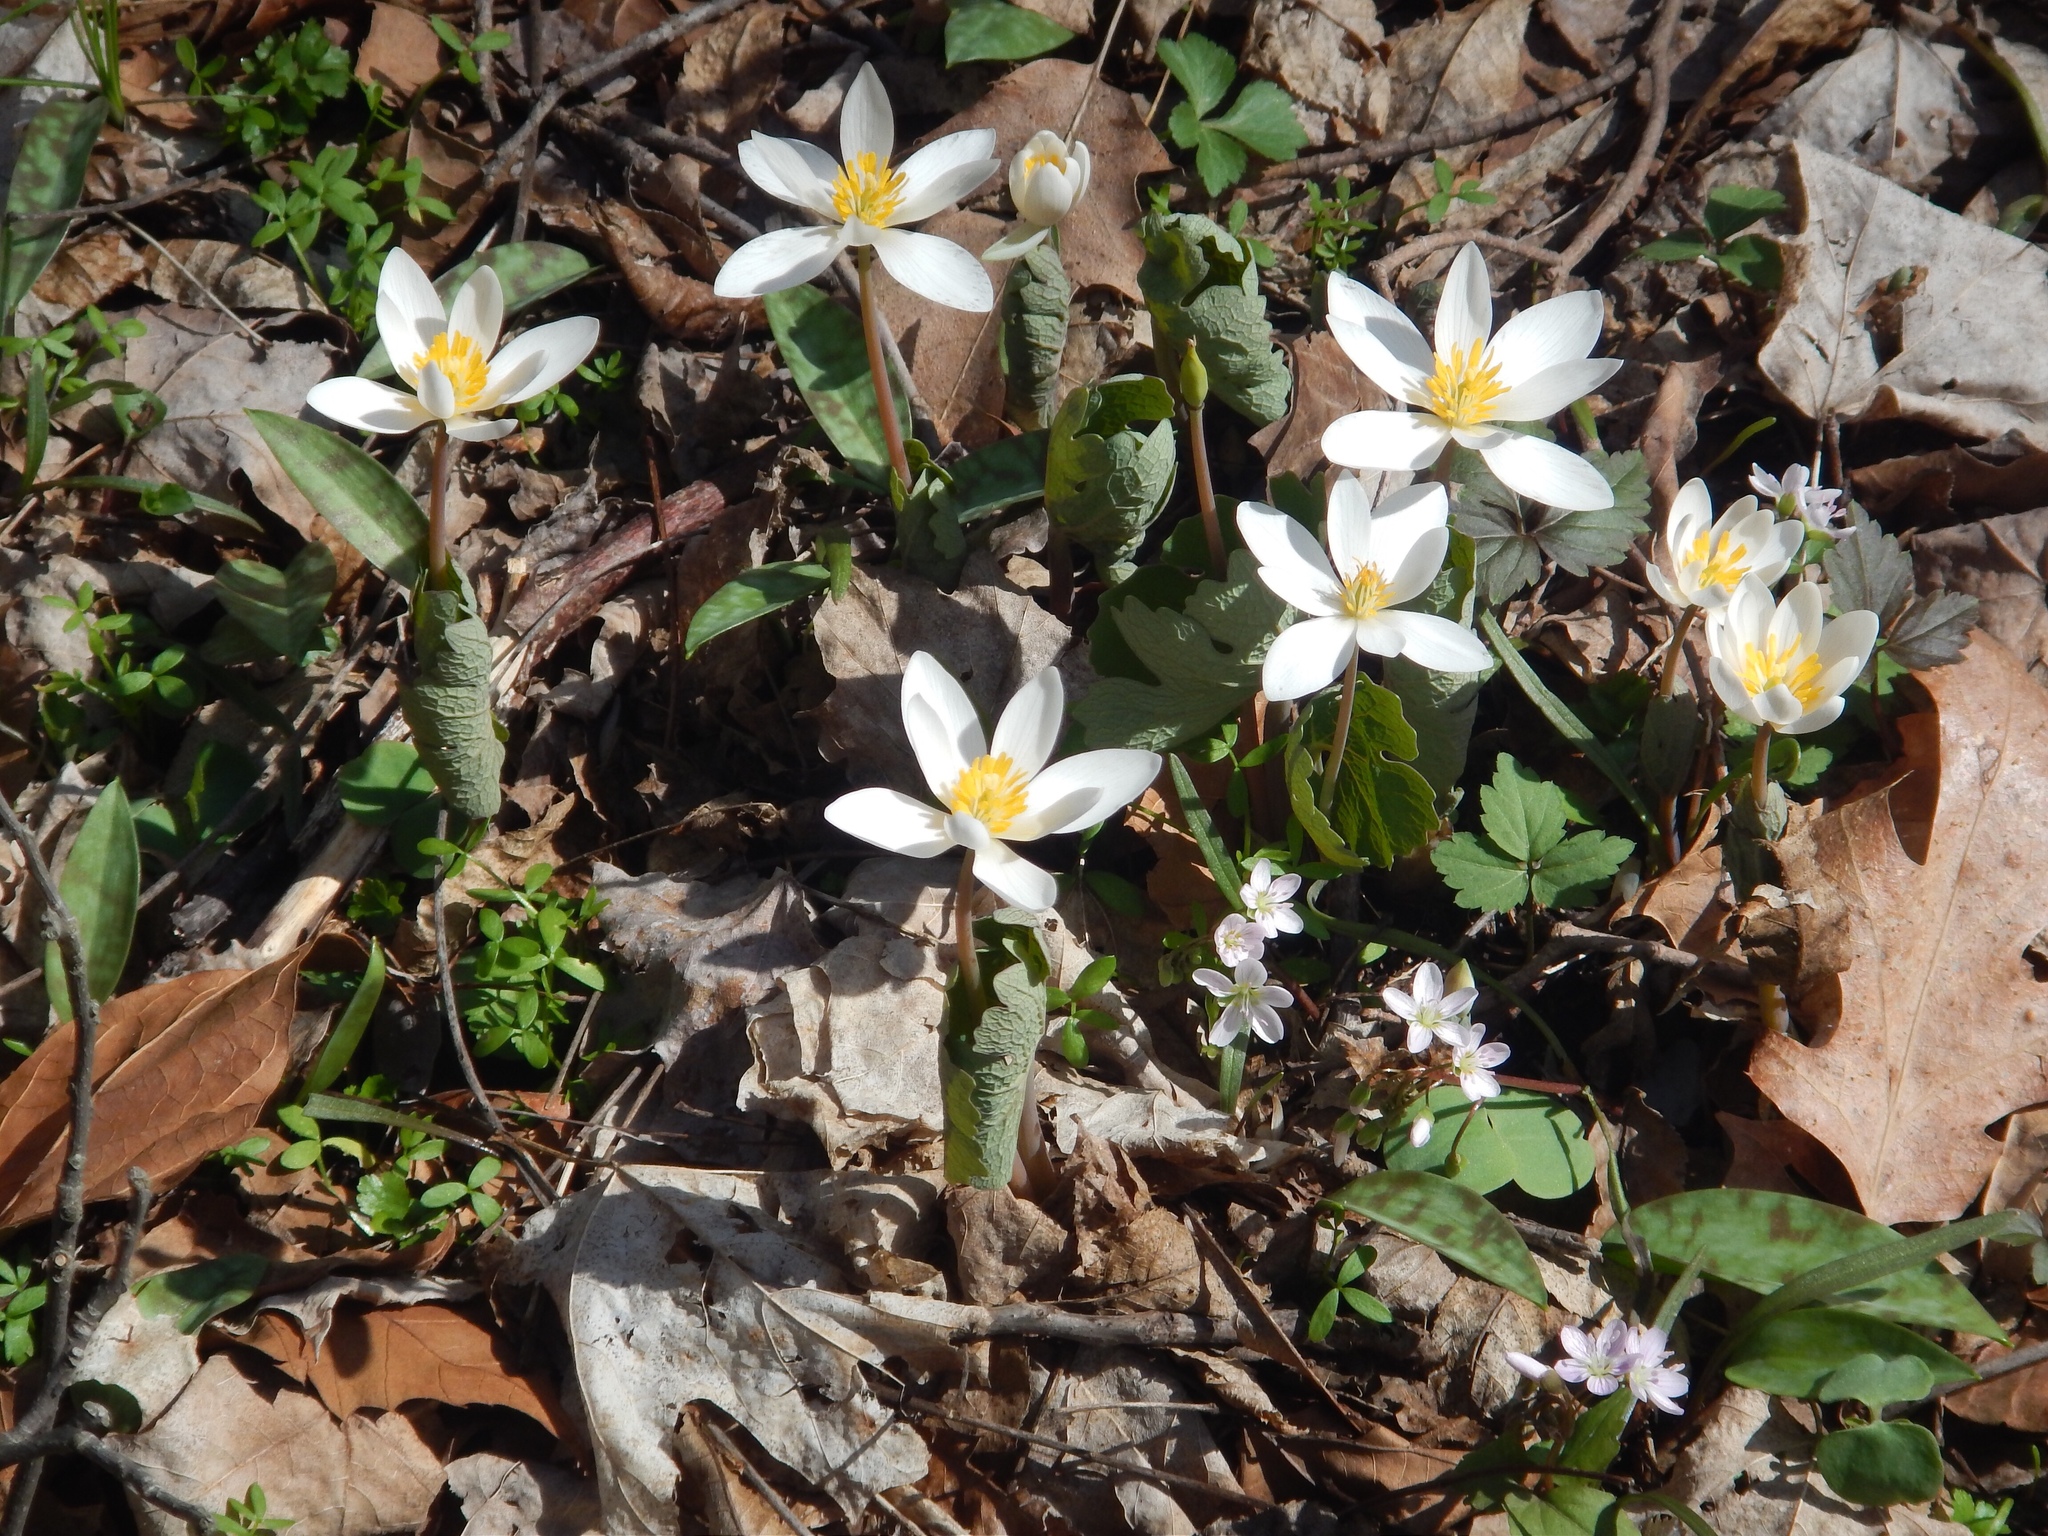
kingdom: Plantae
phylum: Tracheophyta
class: Magnoliopsida
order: Ranunculales
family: Papaveraceae
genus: Sanguinaria
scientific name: Sanguinaria canadensis
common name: Bloodroot
